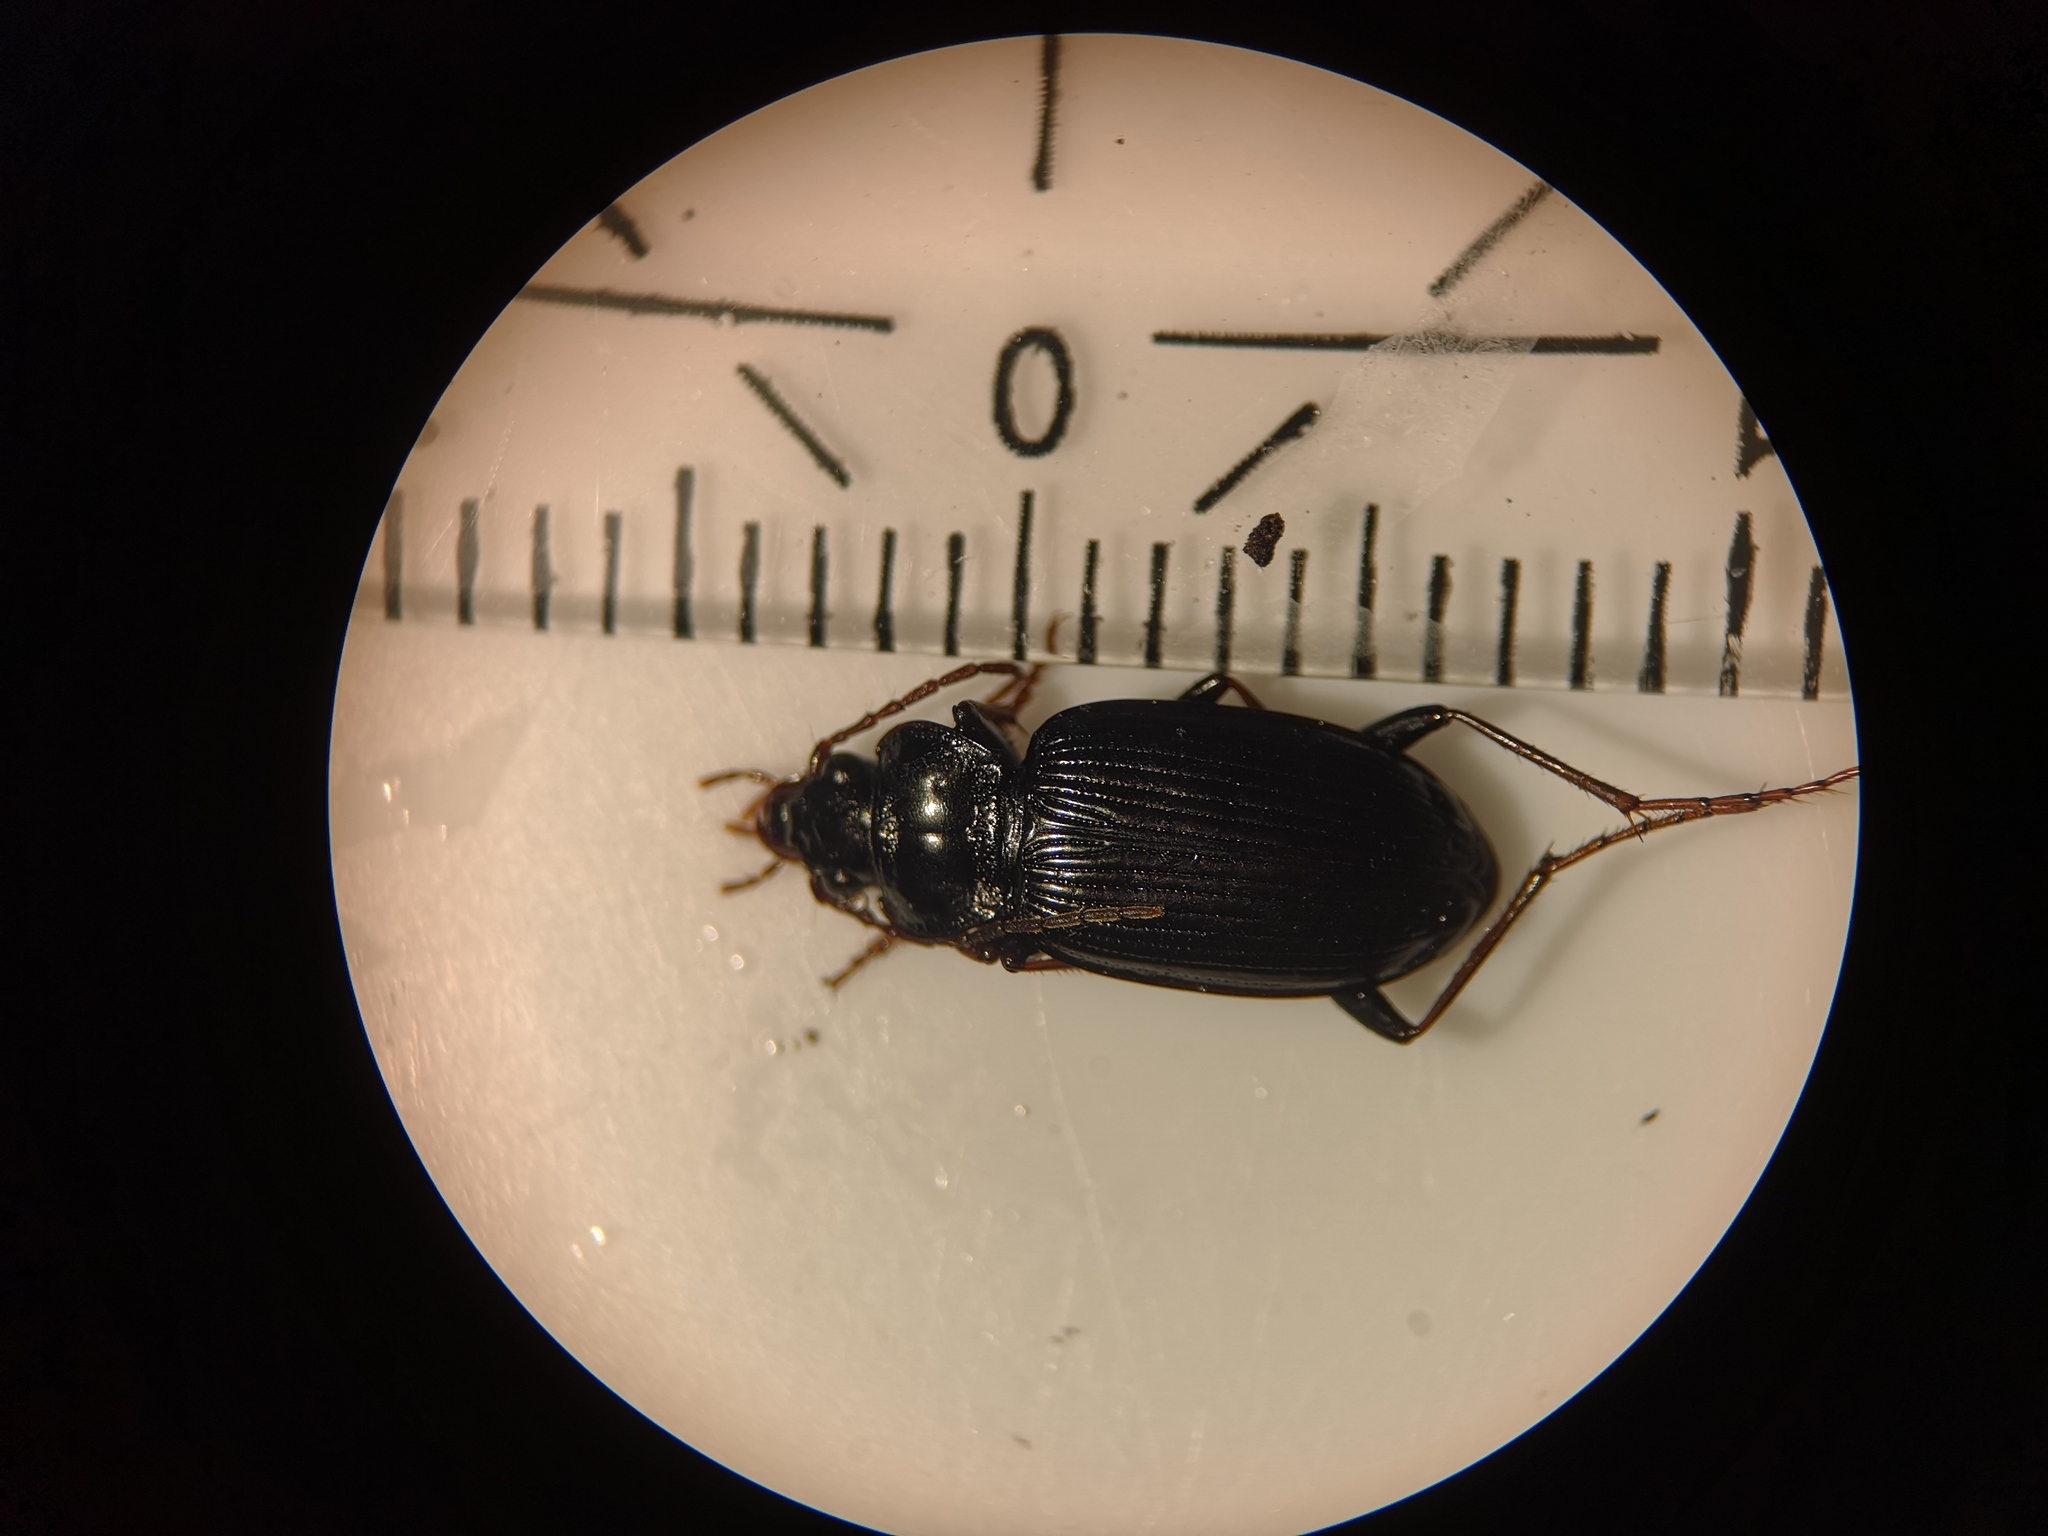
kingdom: Animalia
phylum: Arthropoda
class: Insecta
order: Coleoptera
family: Carabidae
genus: Nebria
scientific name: Nebria brevicollis
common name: Short-necked gazelle beetle
